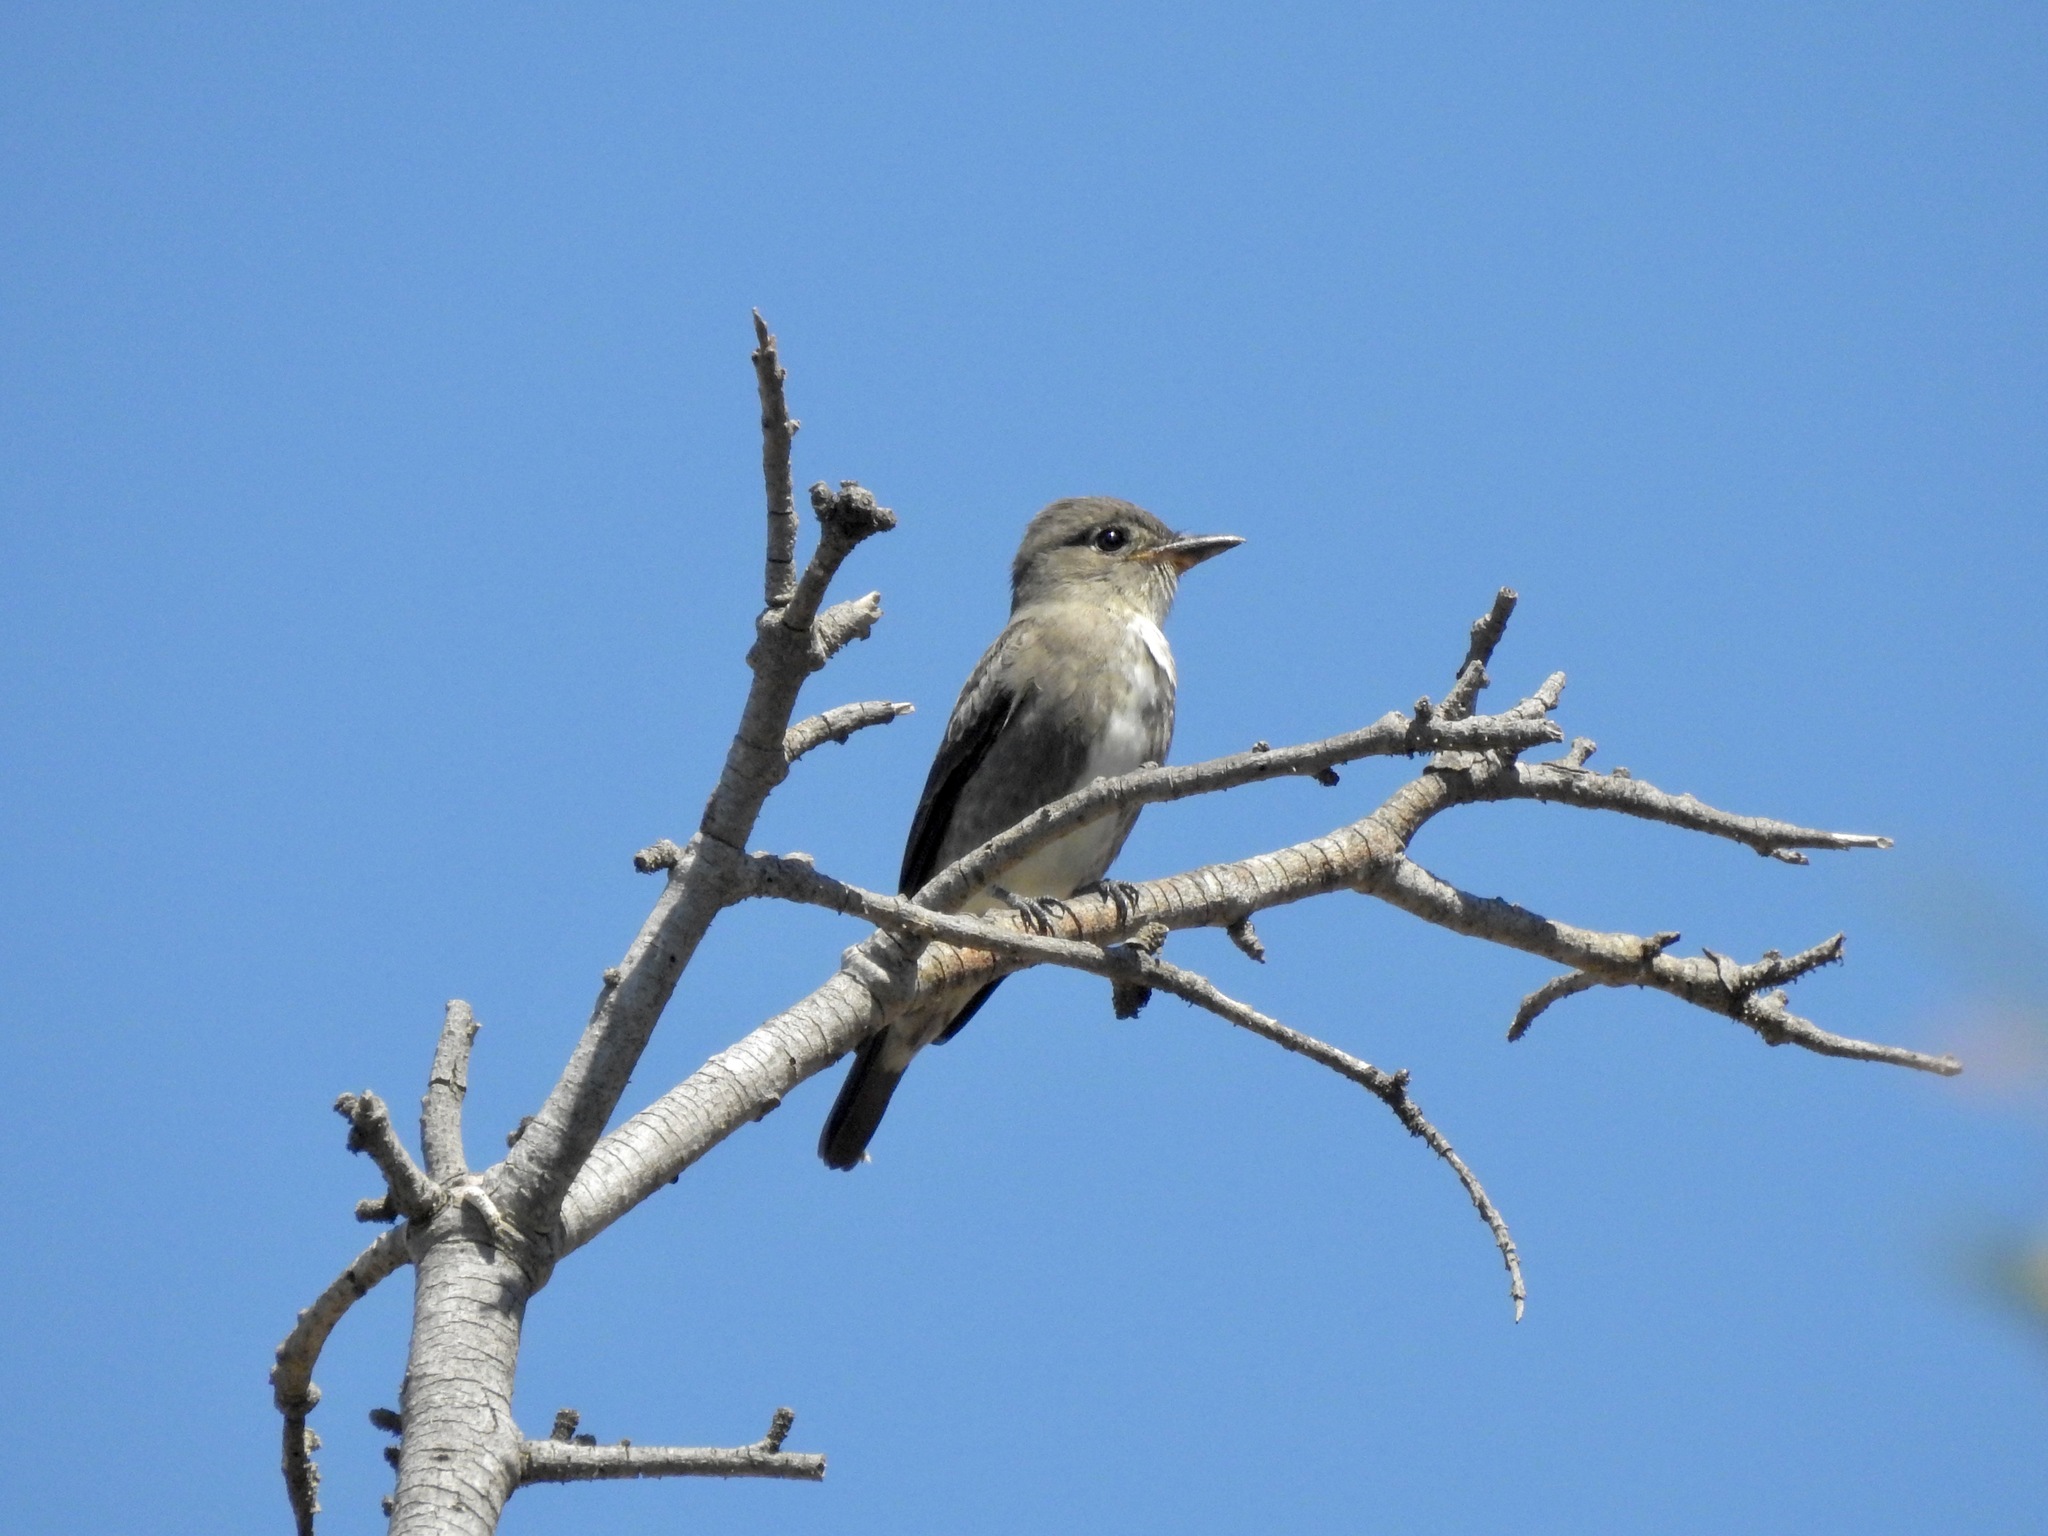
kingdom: Animalia
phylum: Chordata
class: Aves
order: Passeriformes
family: Tyrannidae
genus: Contopus
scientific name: Contopus cooperi
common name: Olive-sided flycatcher
